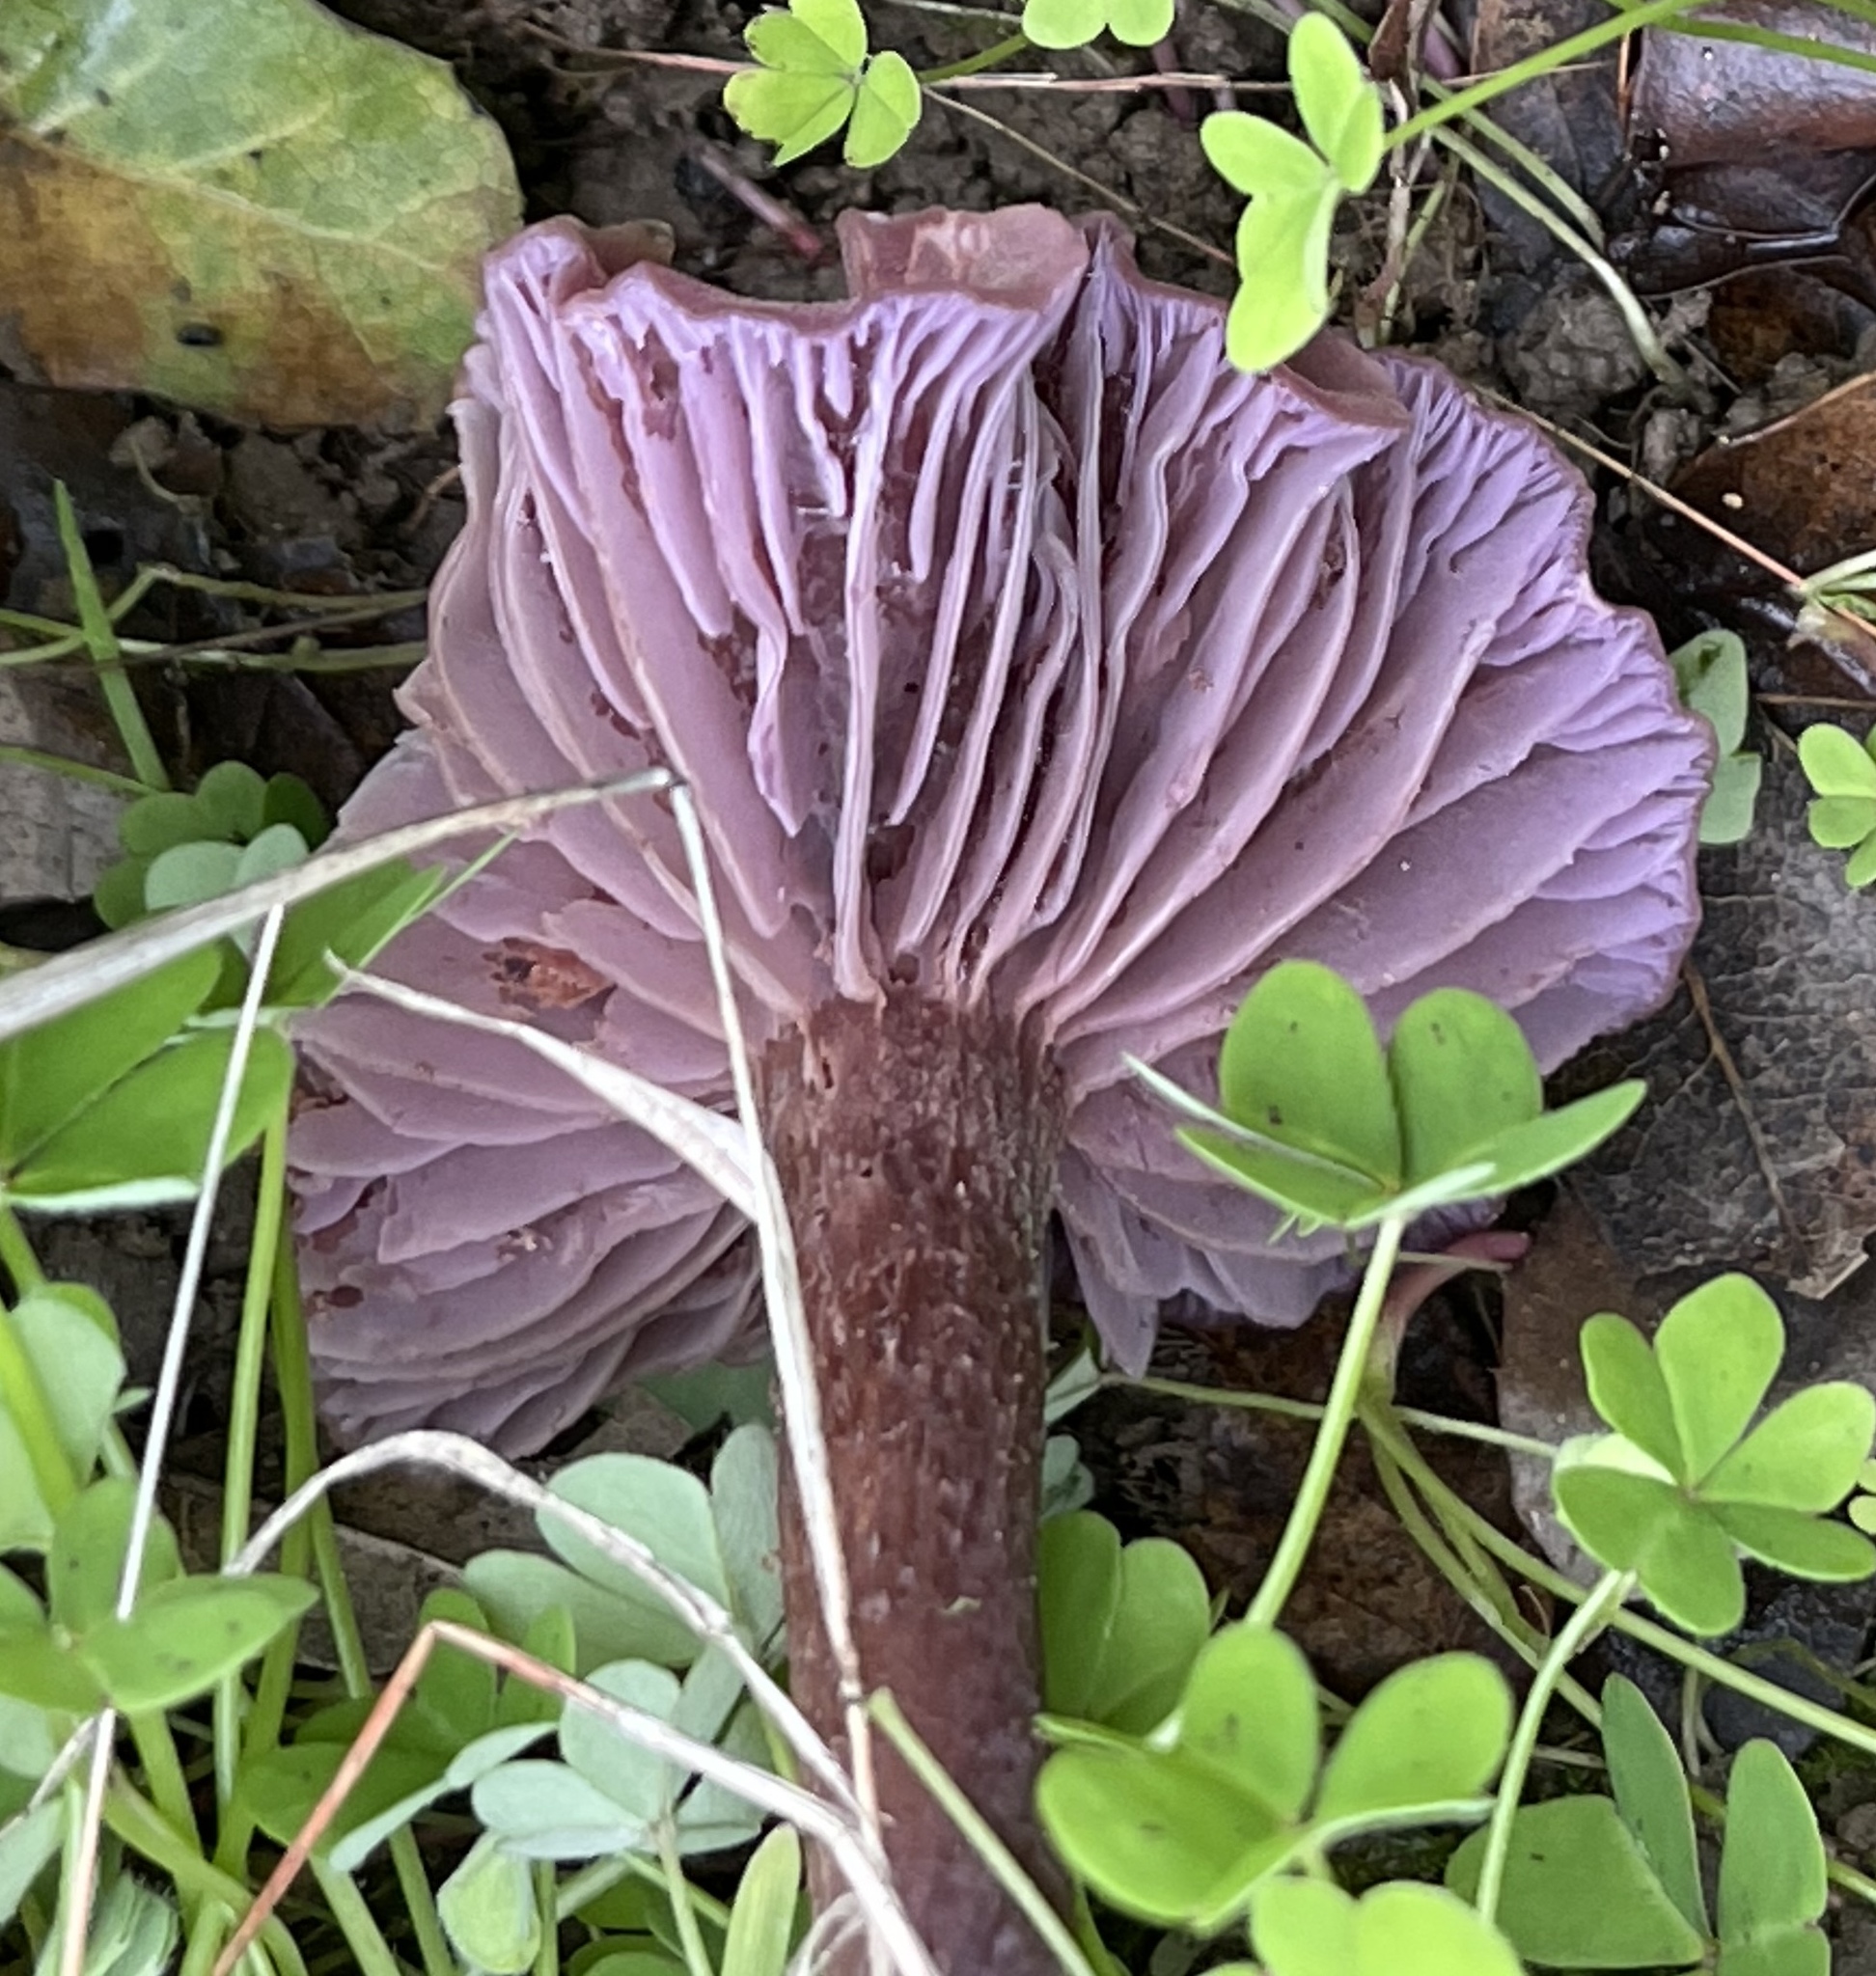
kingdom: Fungi
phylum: Basidiomycota
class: Agaricomycetes
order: Agaricales
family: Hydnangiaceae
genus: Laccaria
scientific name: Laccaria amethysteo-occidentalis
